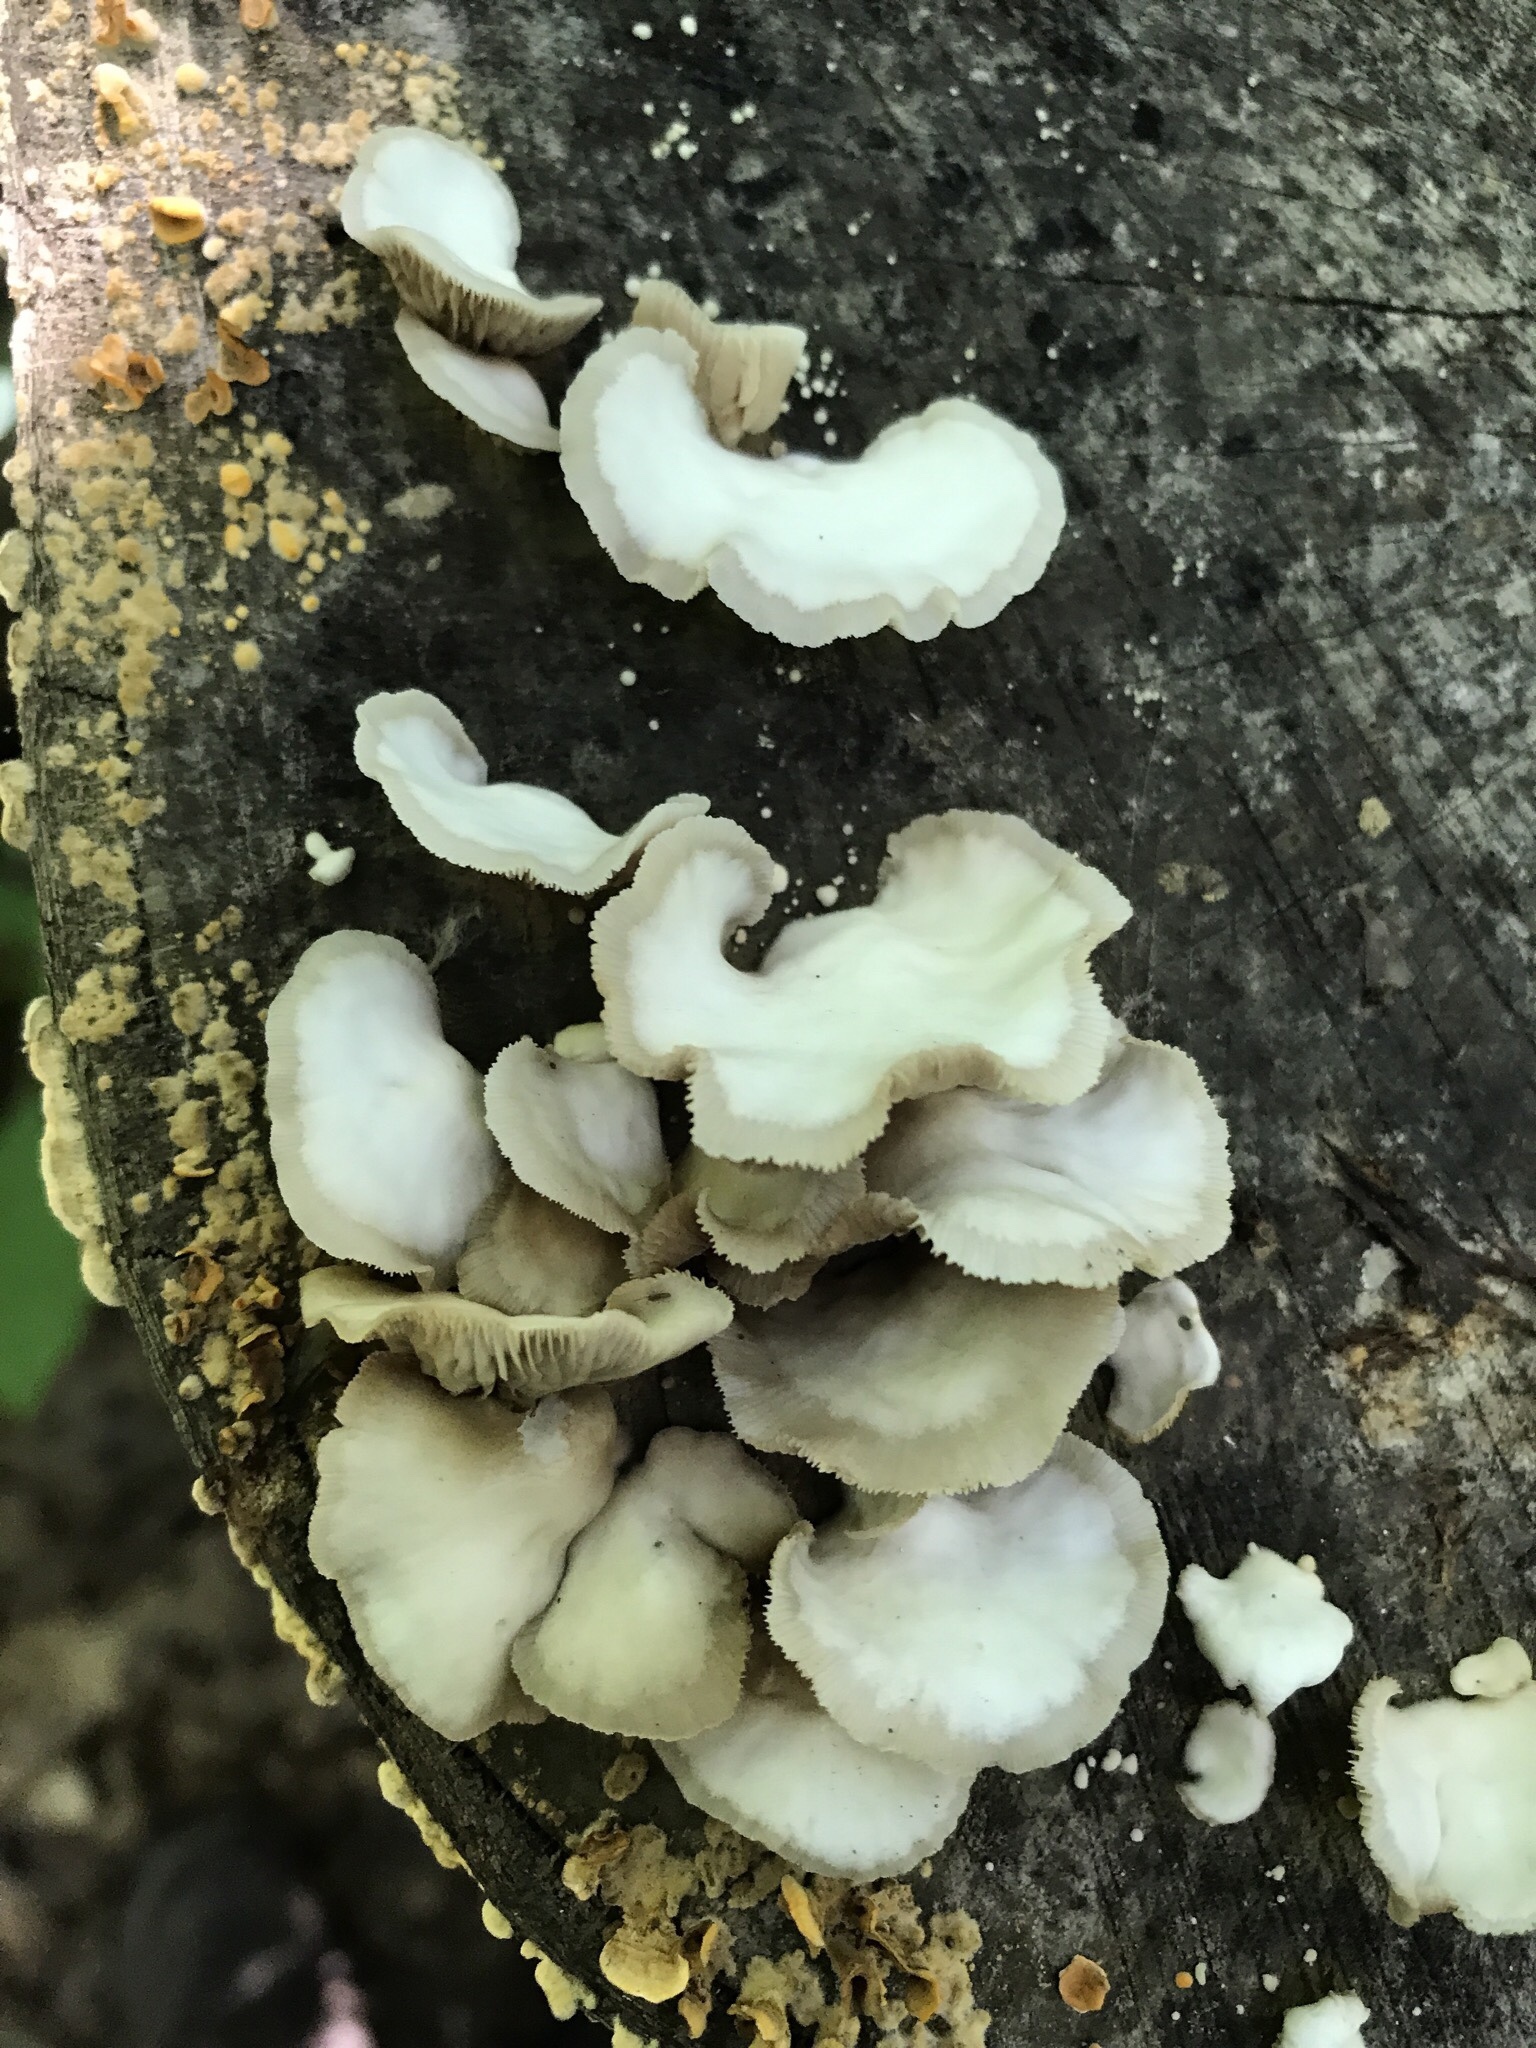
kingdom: Fungi
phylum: Basidiomycota
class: Agaricomycetes
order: Agaricales
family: Crepidotaceae
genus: Crepidotus
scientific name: Crepidotus applanatus
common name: Flat crep
